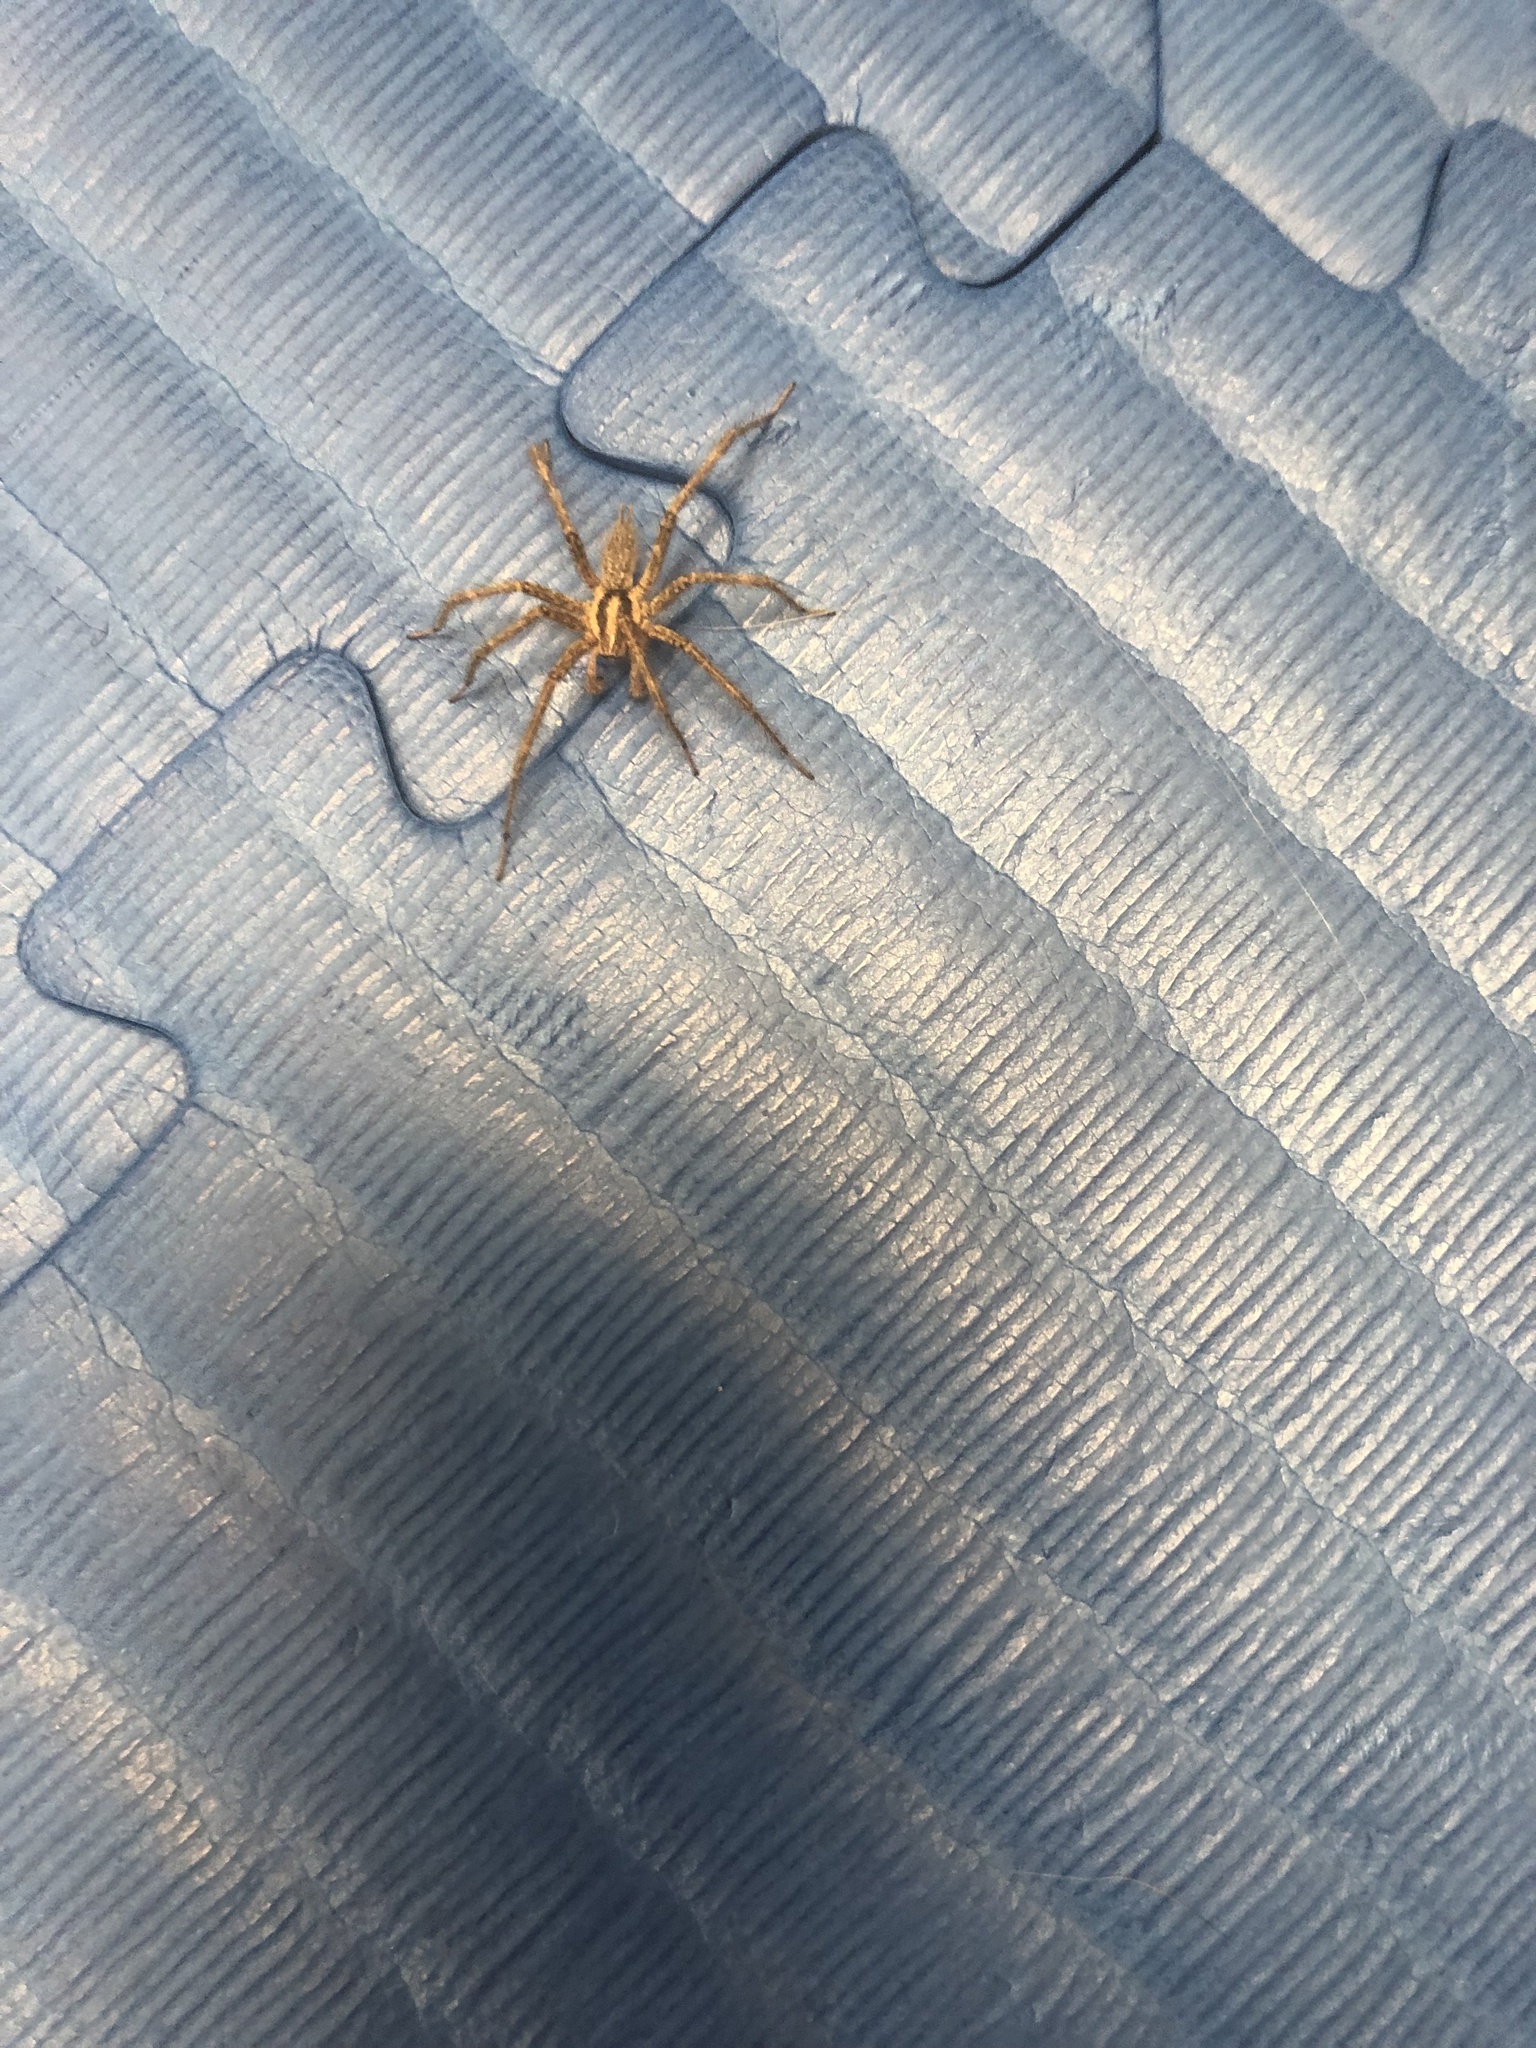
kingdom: Animalia
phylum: Arthropoda
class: Arachnida
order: Araneae
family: Agelenidae
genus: Agelenopsis
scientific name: Agelenopsis
